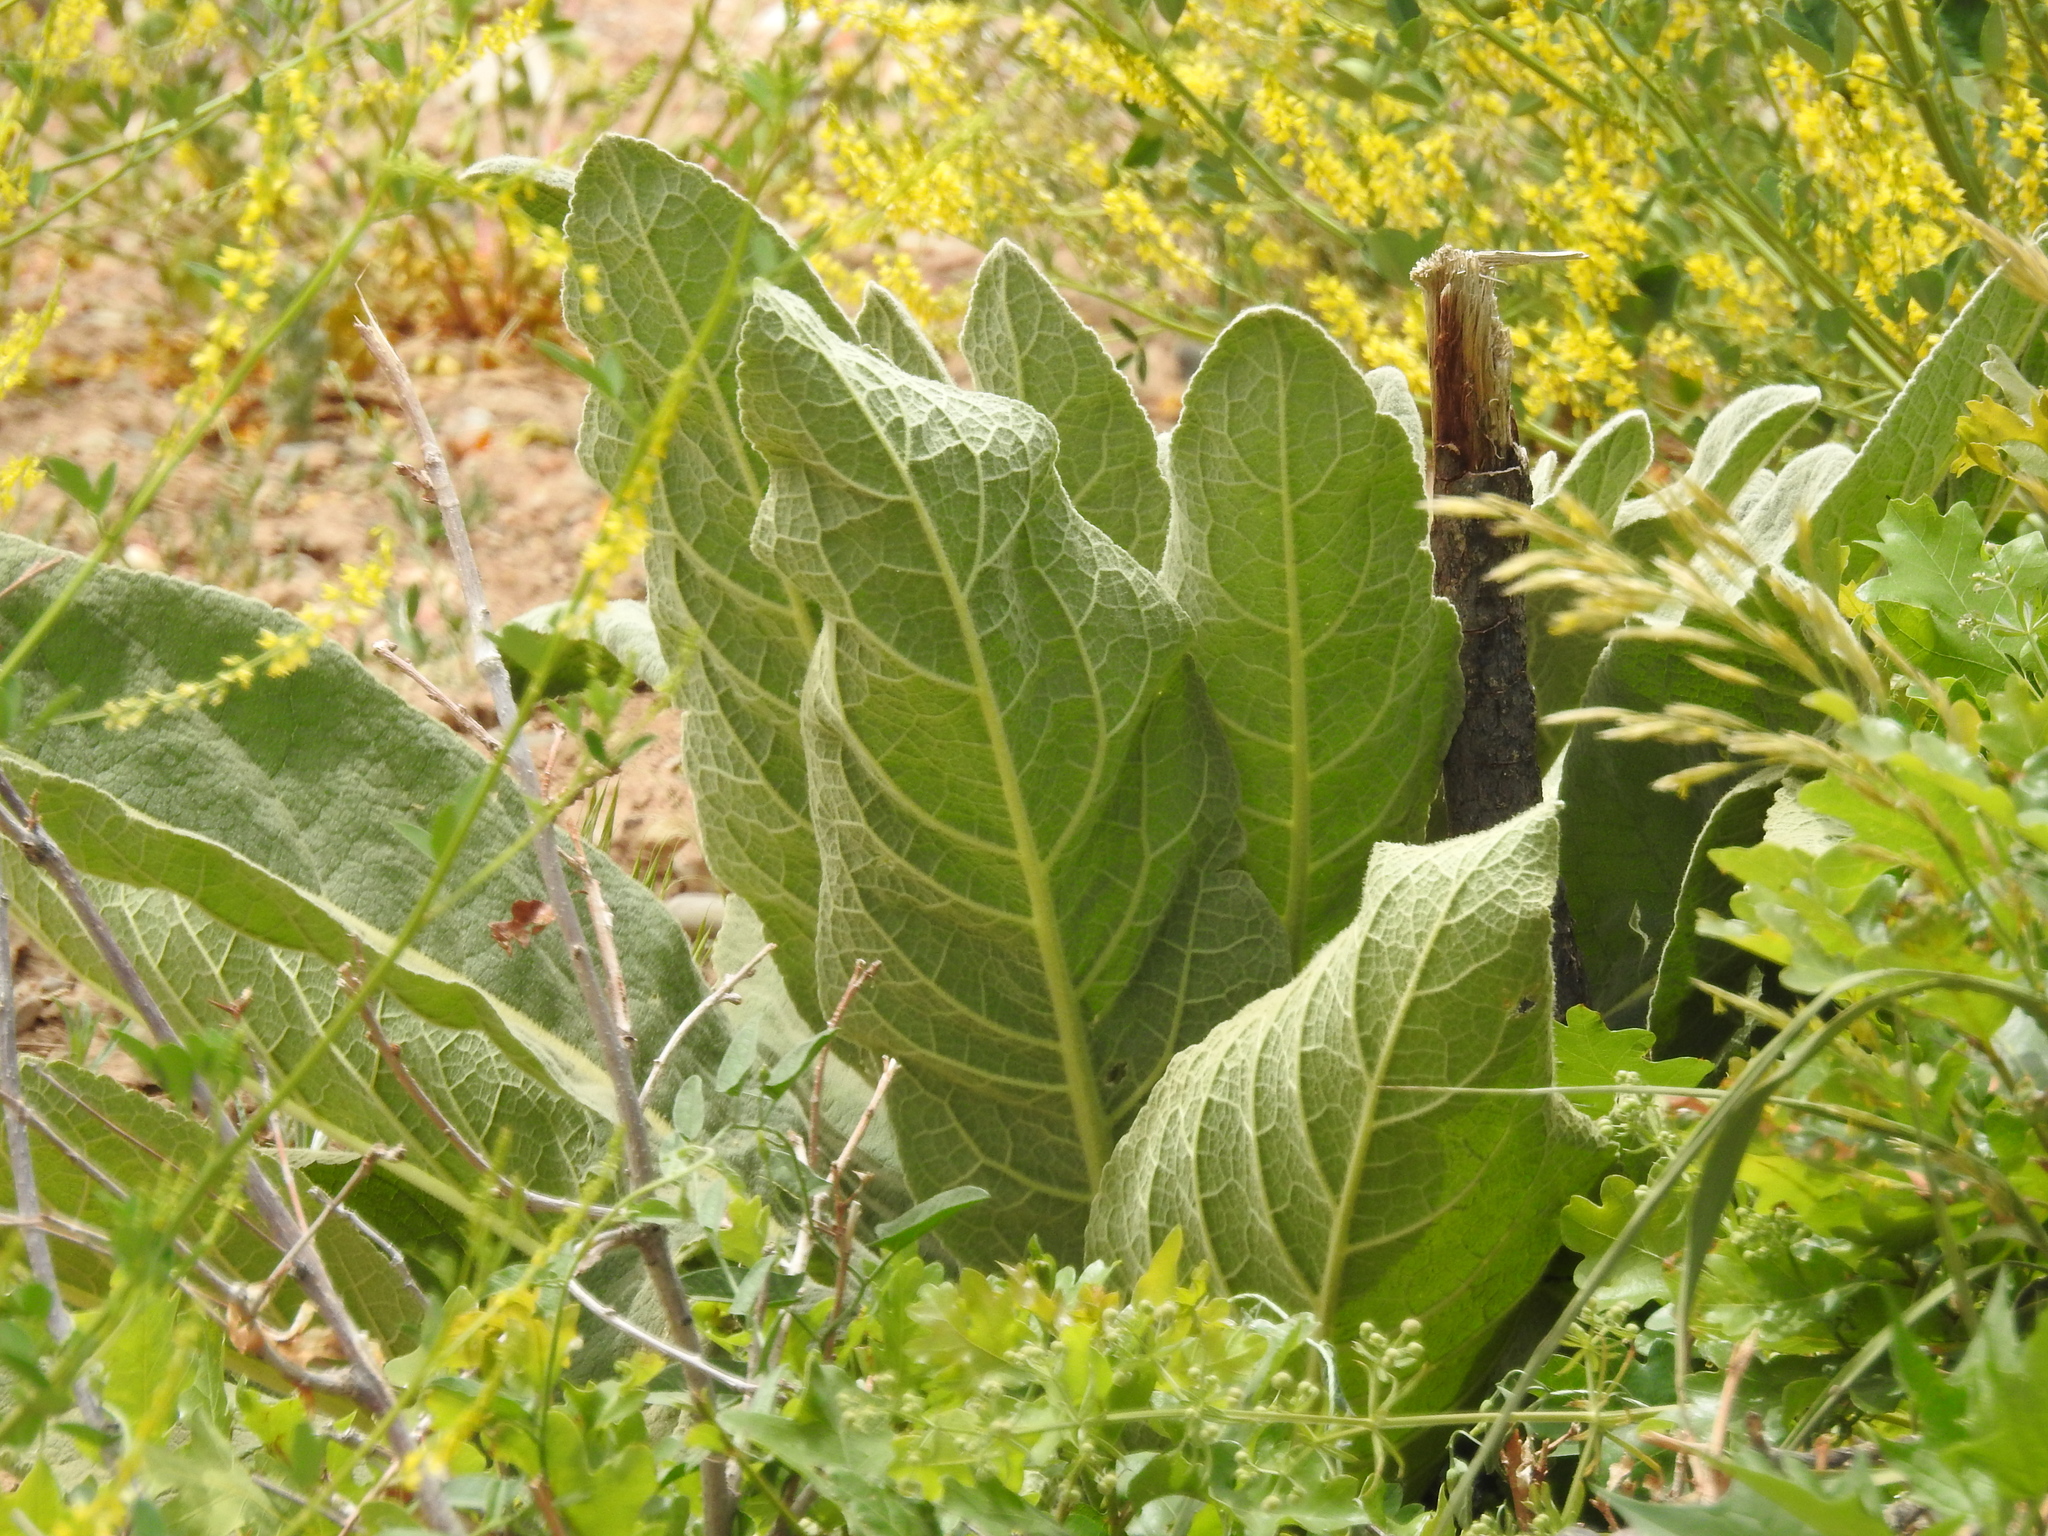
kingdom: Plantae
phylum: Tracheophyta
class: Magnoliopsida
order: Lamiales
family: Scrophulariaceae
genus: Verbascum
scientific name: Verbascum thapsus
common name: Common mullein
